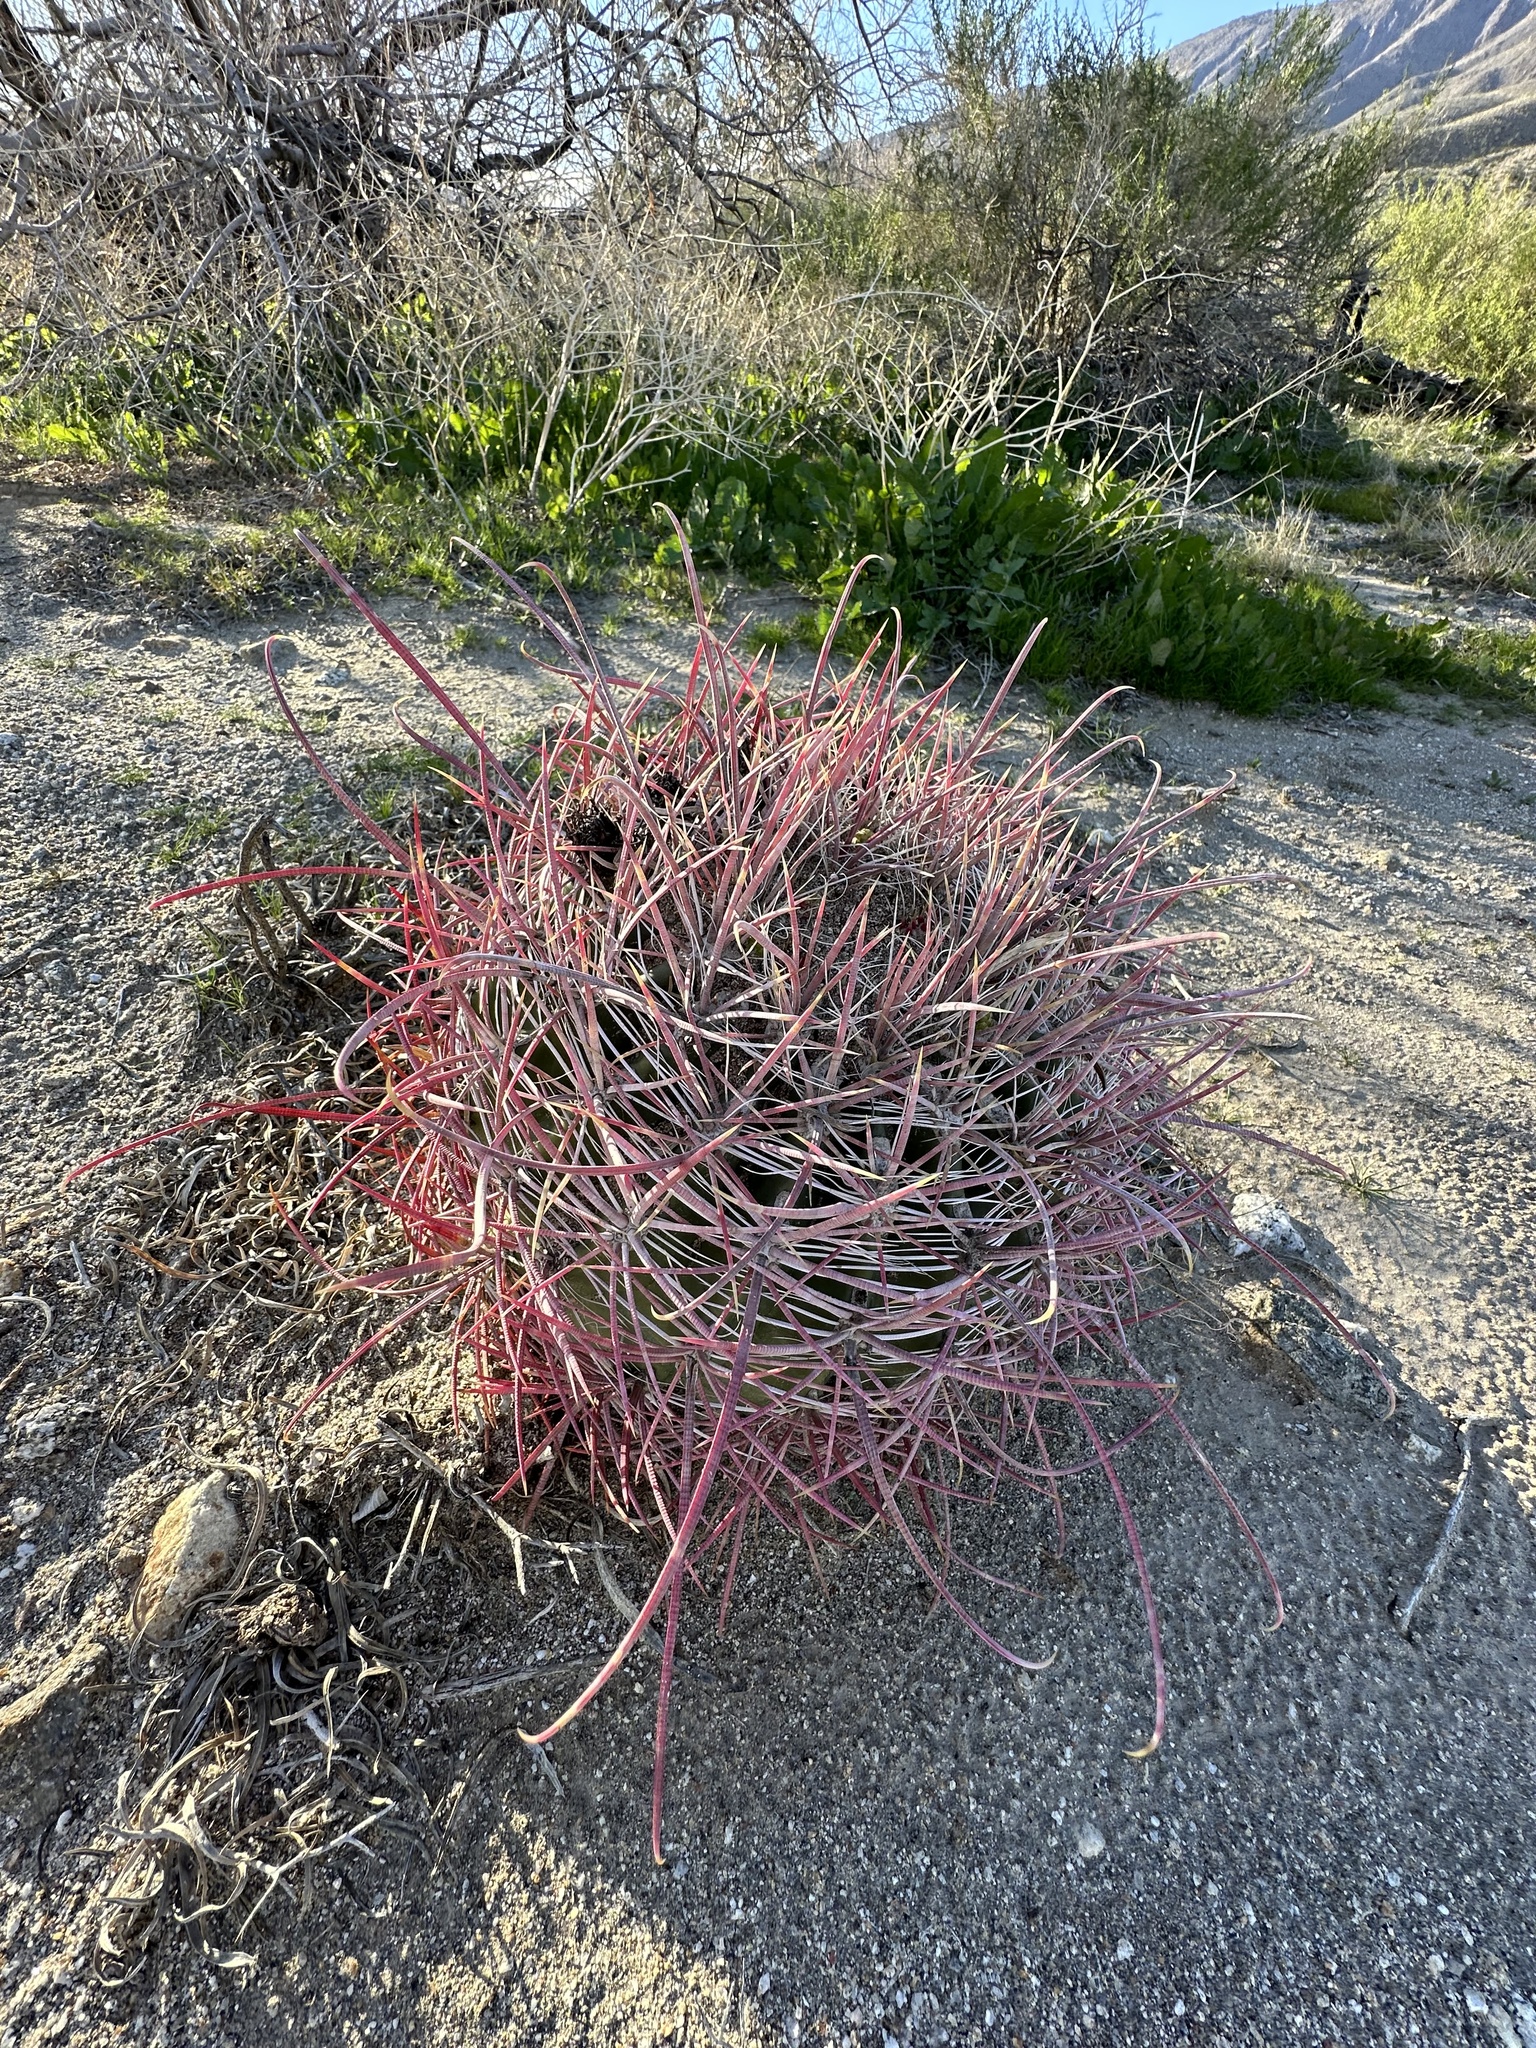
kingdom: Plantae
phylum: Tracheophyta
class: Magnoliopsida
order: Caryophyllales
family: Cactaceae
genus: Ferocactus
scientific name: Ferocactus cylindraceus
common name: California barrel cactus
